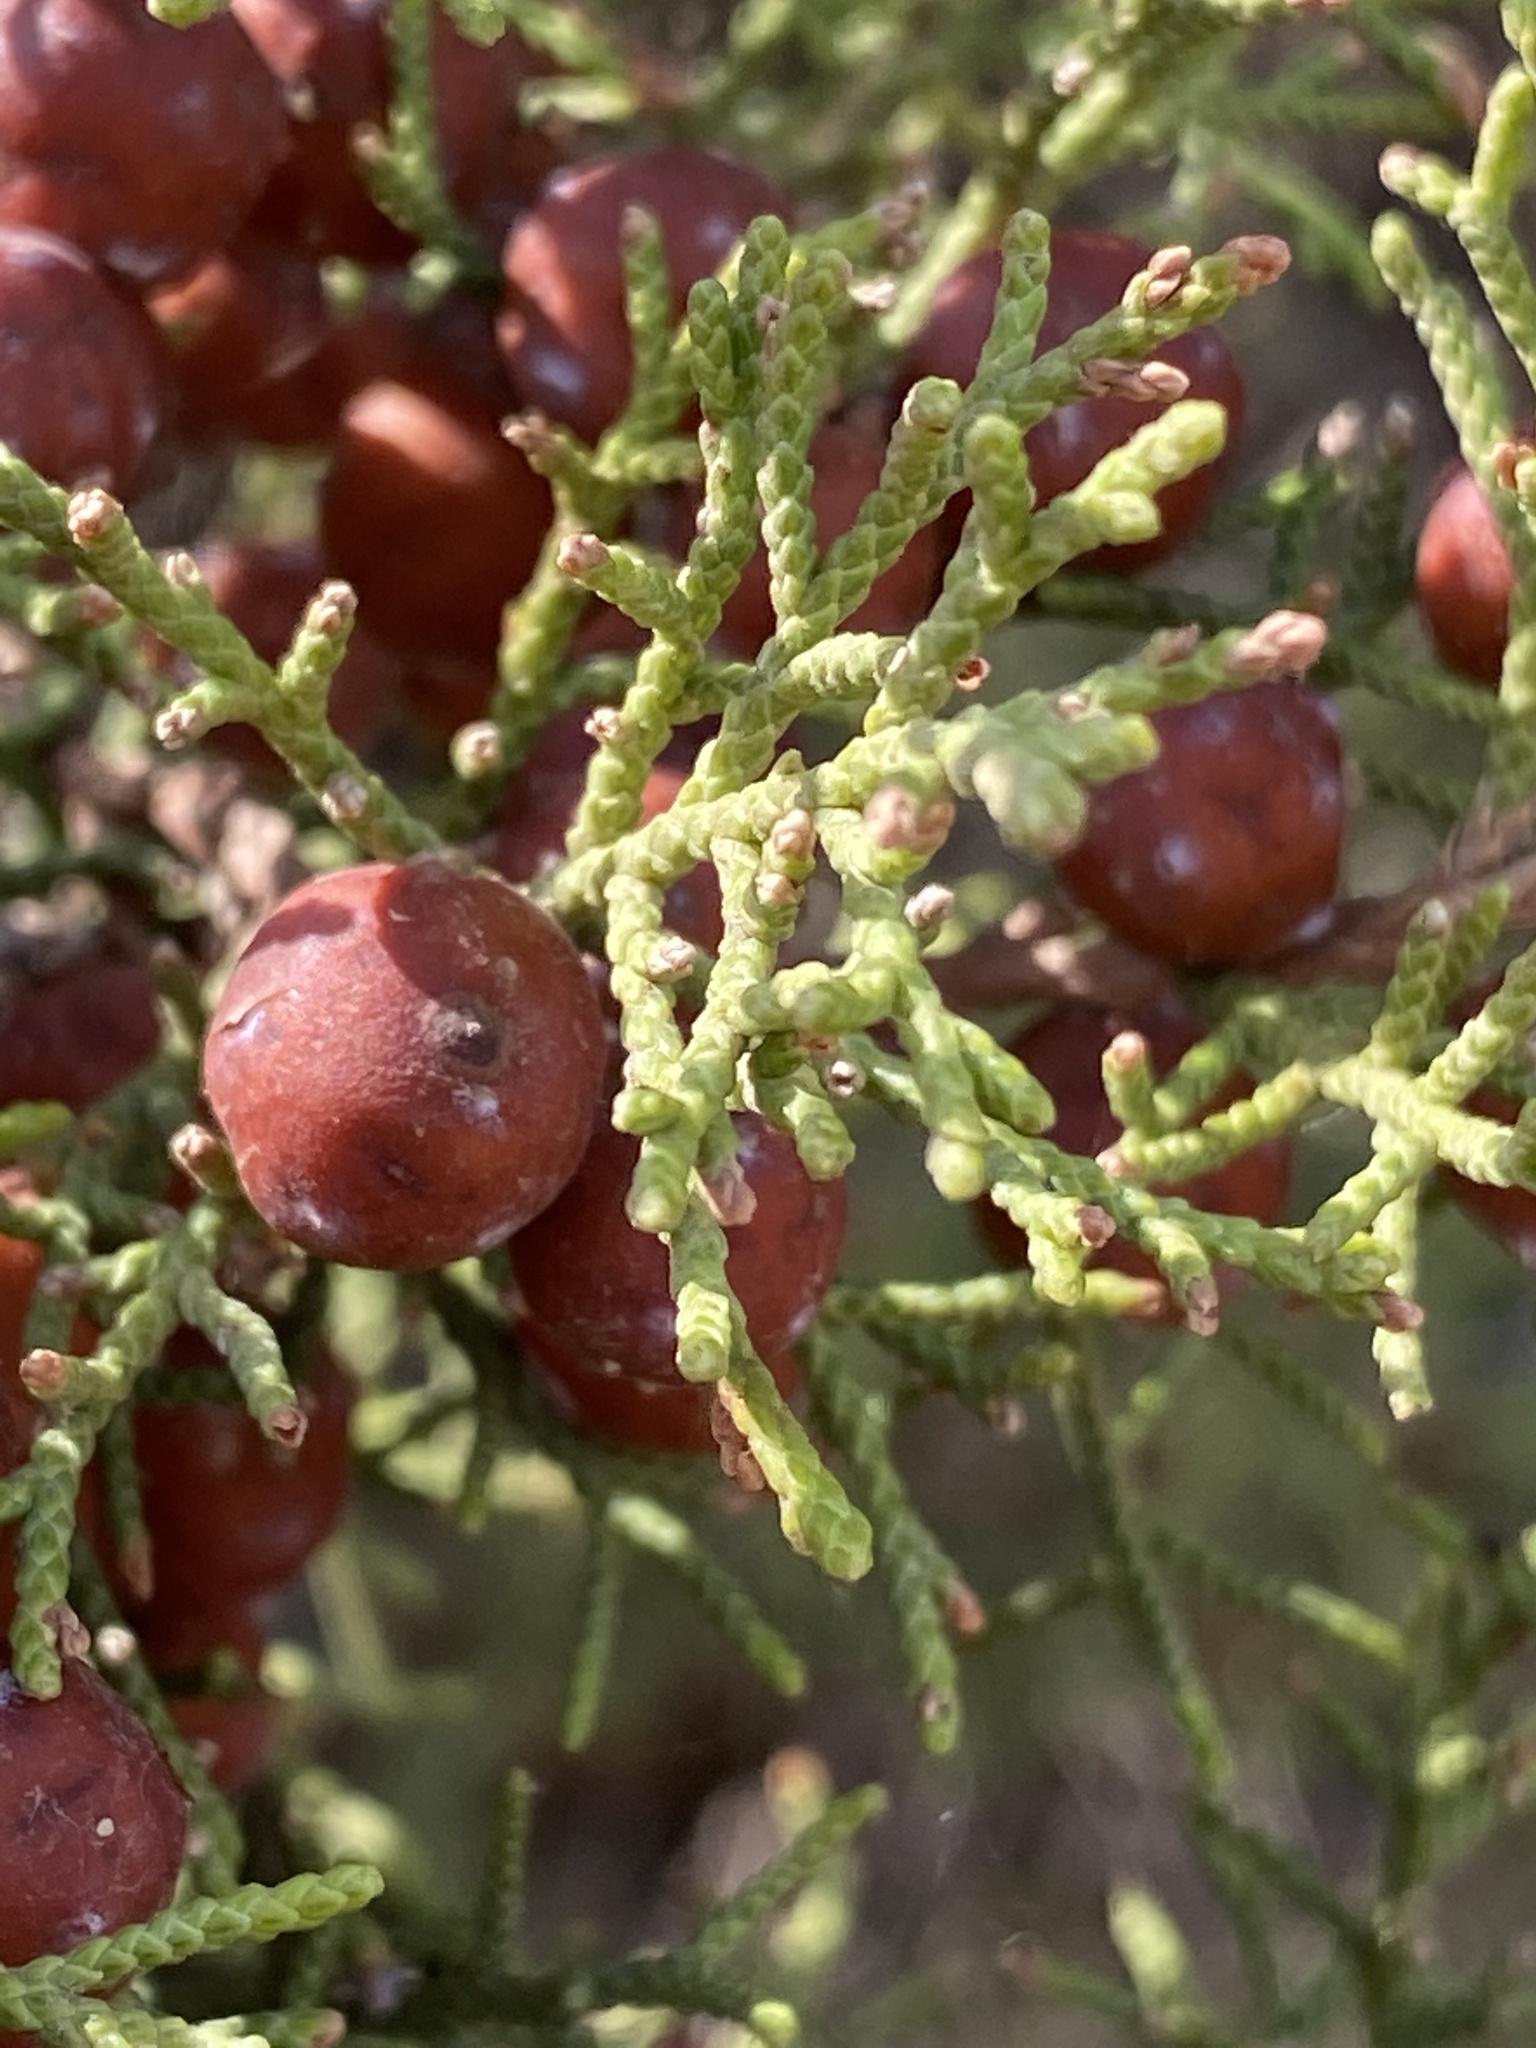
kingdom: Plantae
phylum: Tracheophyta
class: Pinopsida
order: Pinales
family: Cupressaceae
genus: Juniperus
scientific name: Juniperus phoenicea
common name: Phoenician juniper
